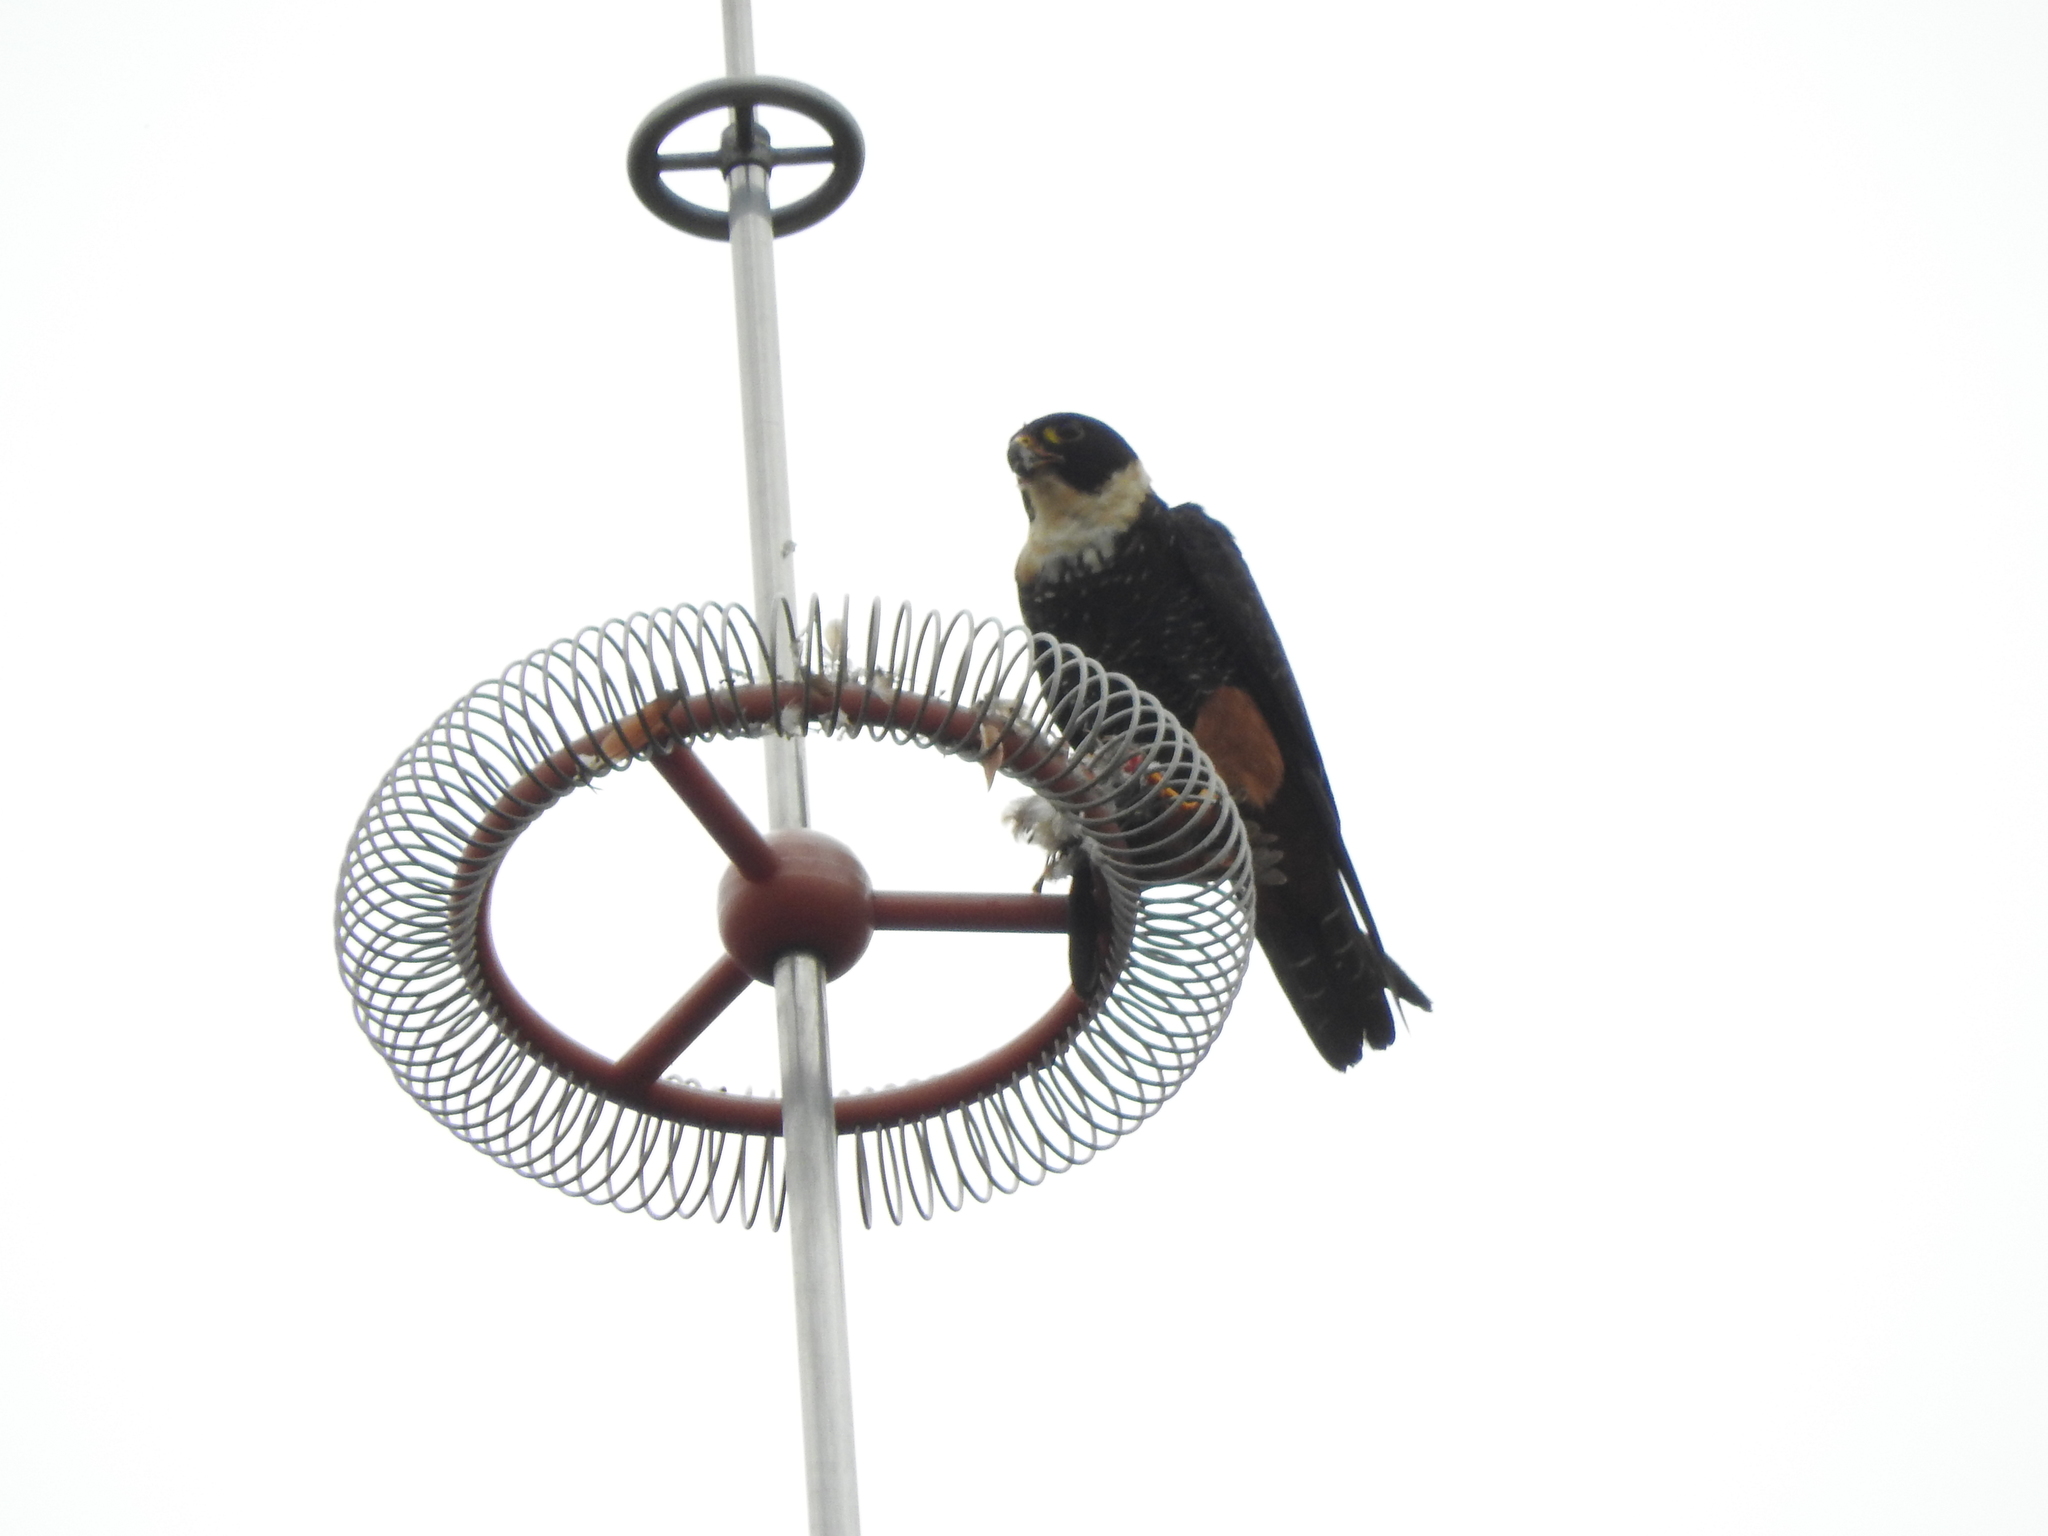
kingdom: Animalia
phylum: Chordata
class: Aves
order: Falconiformes
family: Falconidae
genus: Falco
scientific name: Falco rufigularis
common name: Bat falcon
